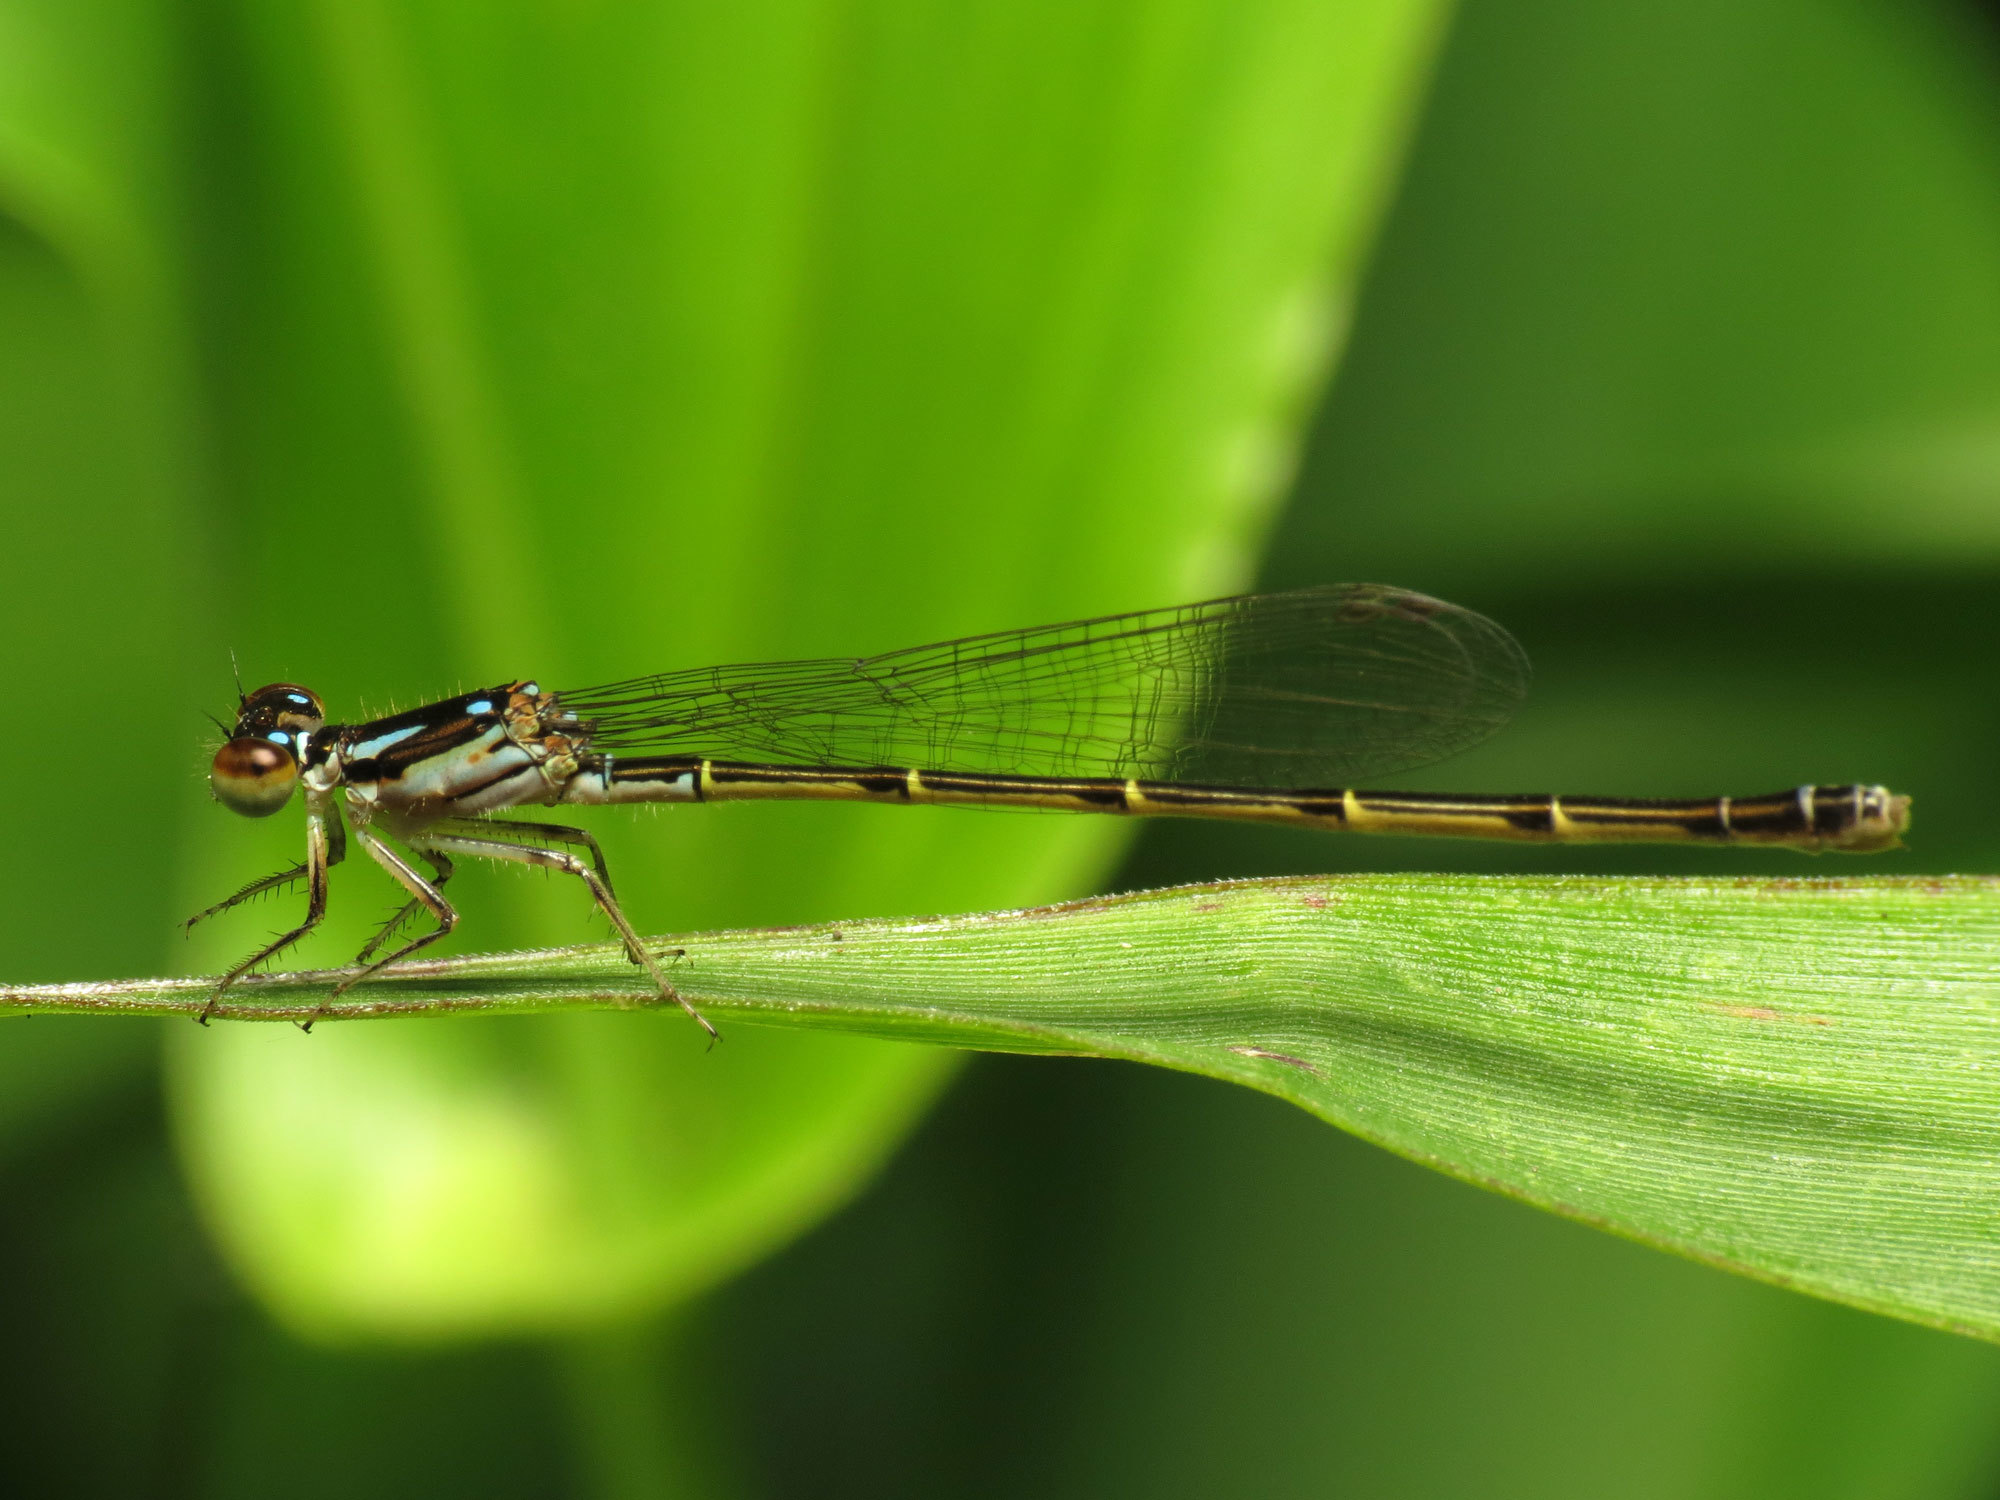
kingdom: Animalia
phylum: Arthropoda
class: Insecta
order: Odonata
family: Coenagrionidae
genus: Ischnura
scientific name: Ischnura posita
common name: Fragile forktail
